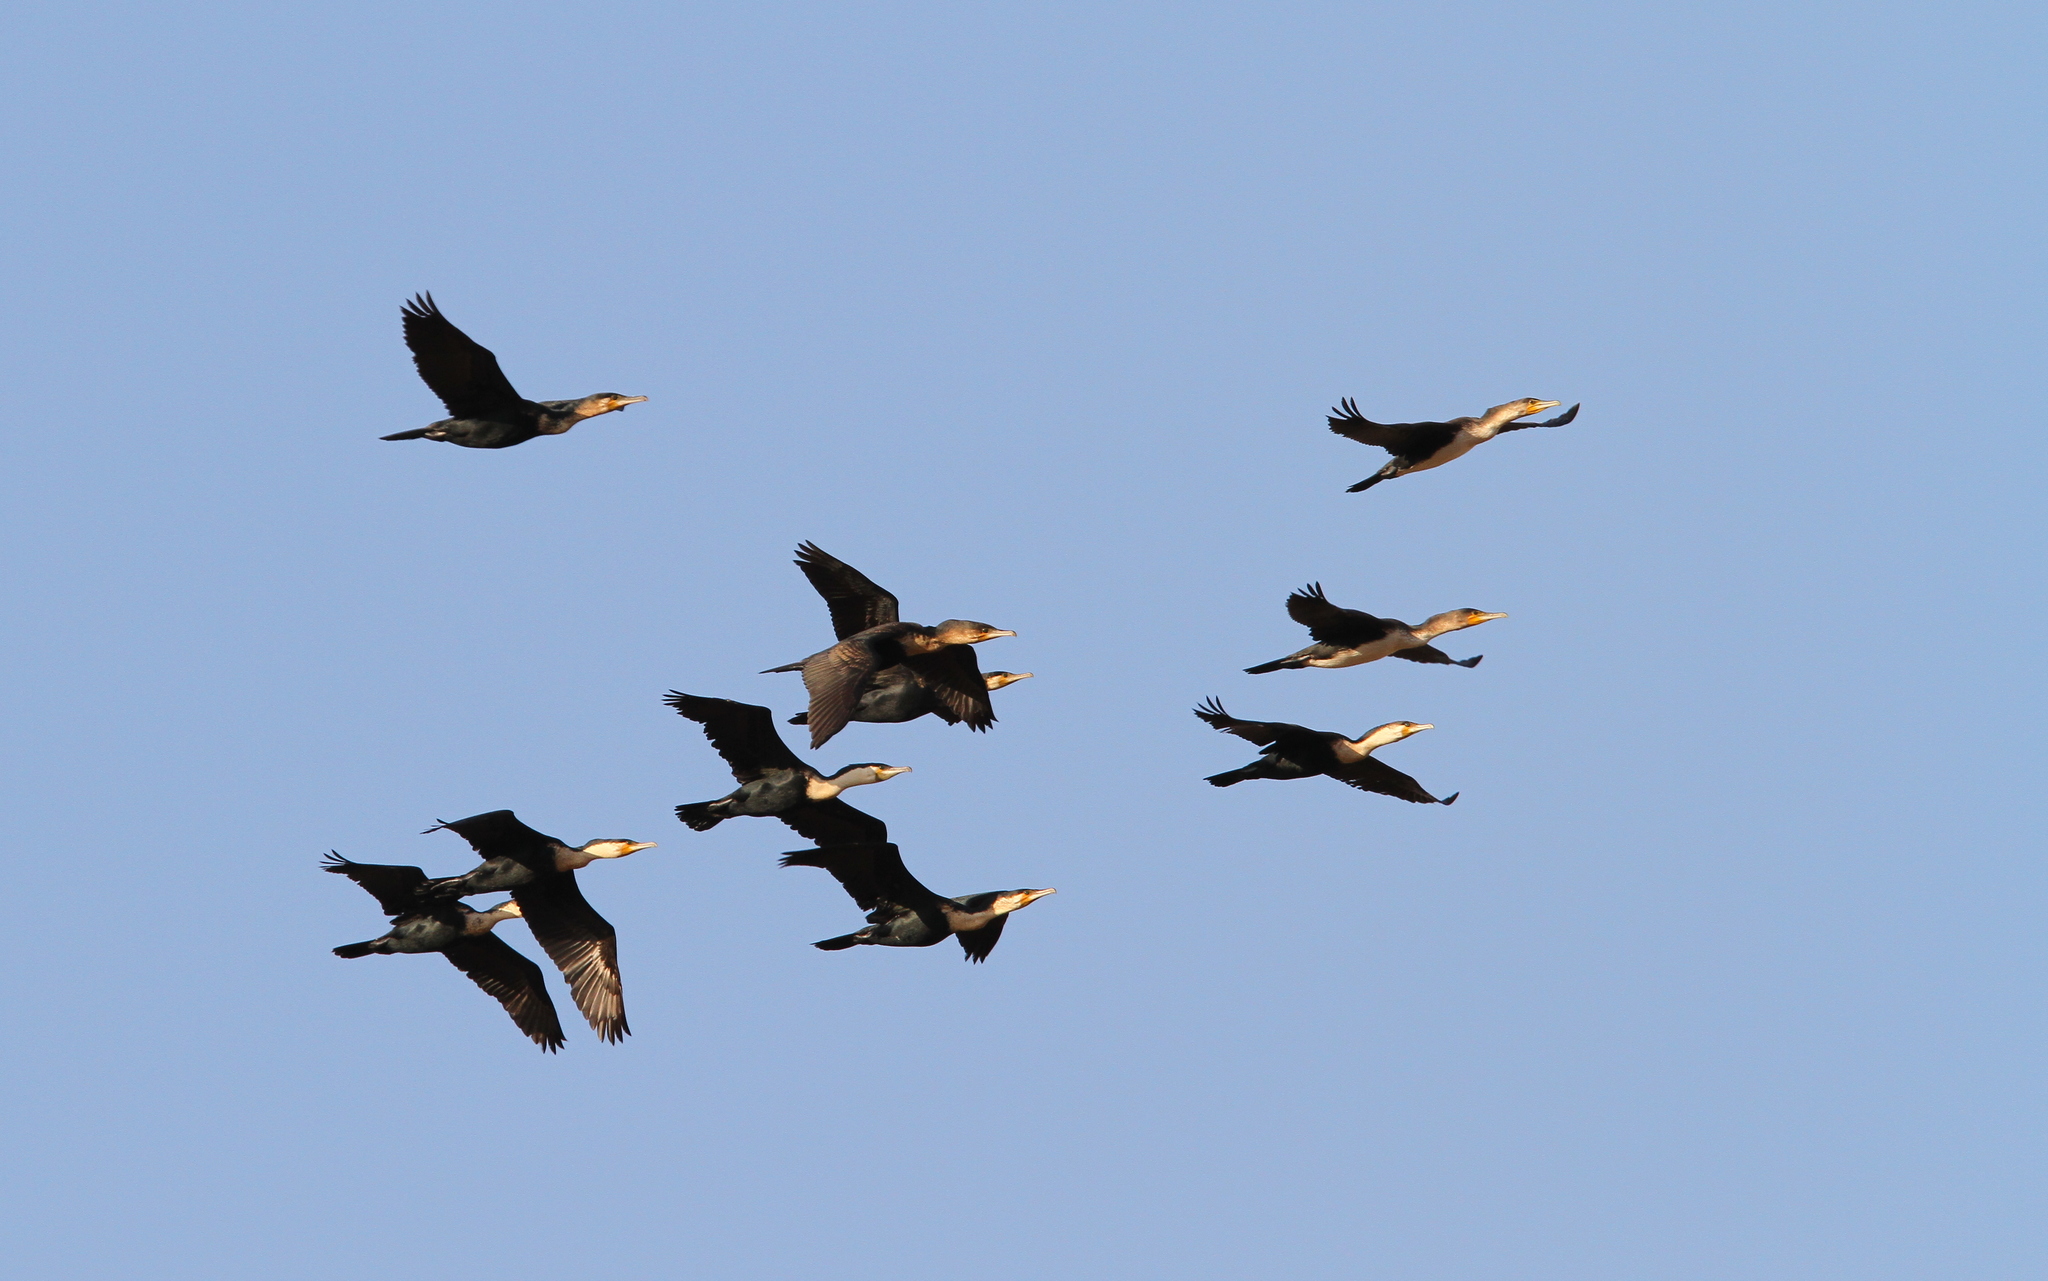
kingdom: Animalia
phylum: Chordata
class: Aves
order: Suliformes
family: Phalacrocoracidae
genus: Phalacrocorax
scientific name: Phalacrocorax carbo
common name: Great cormorant
